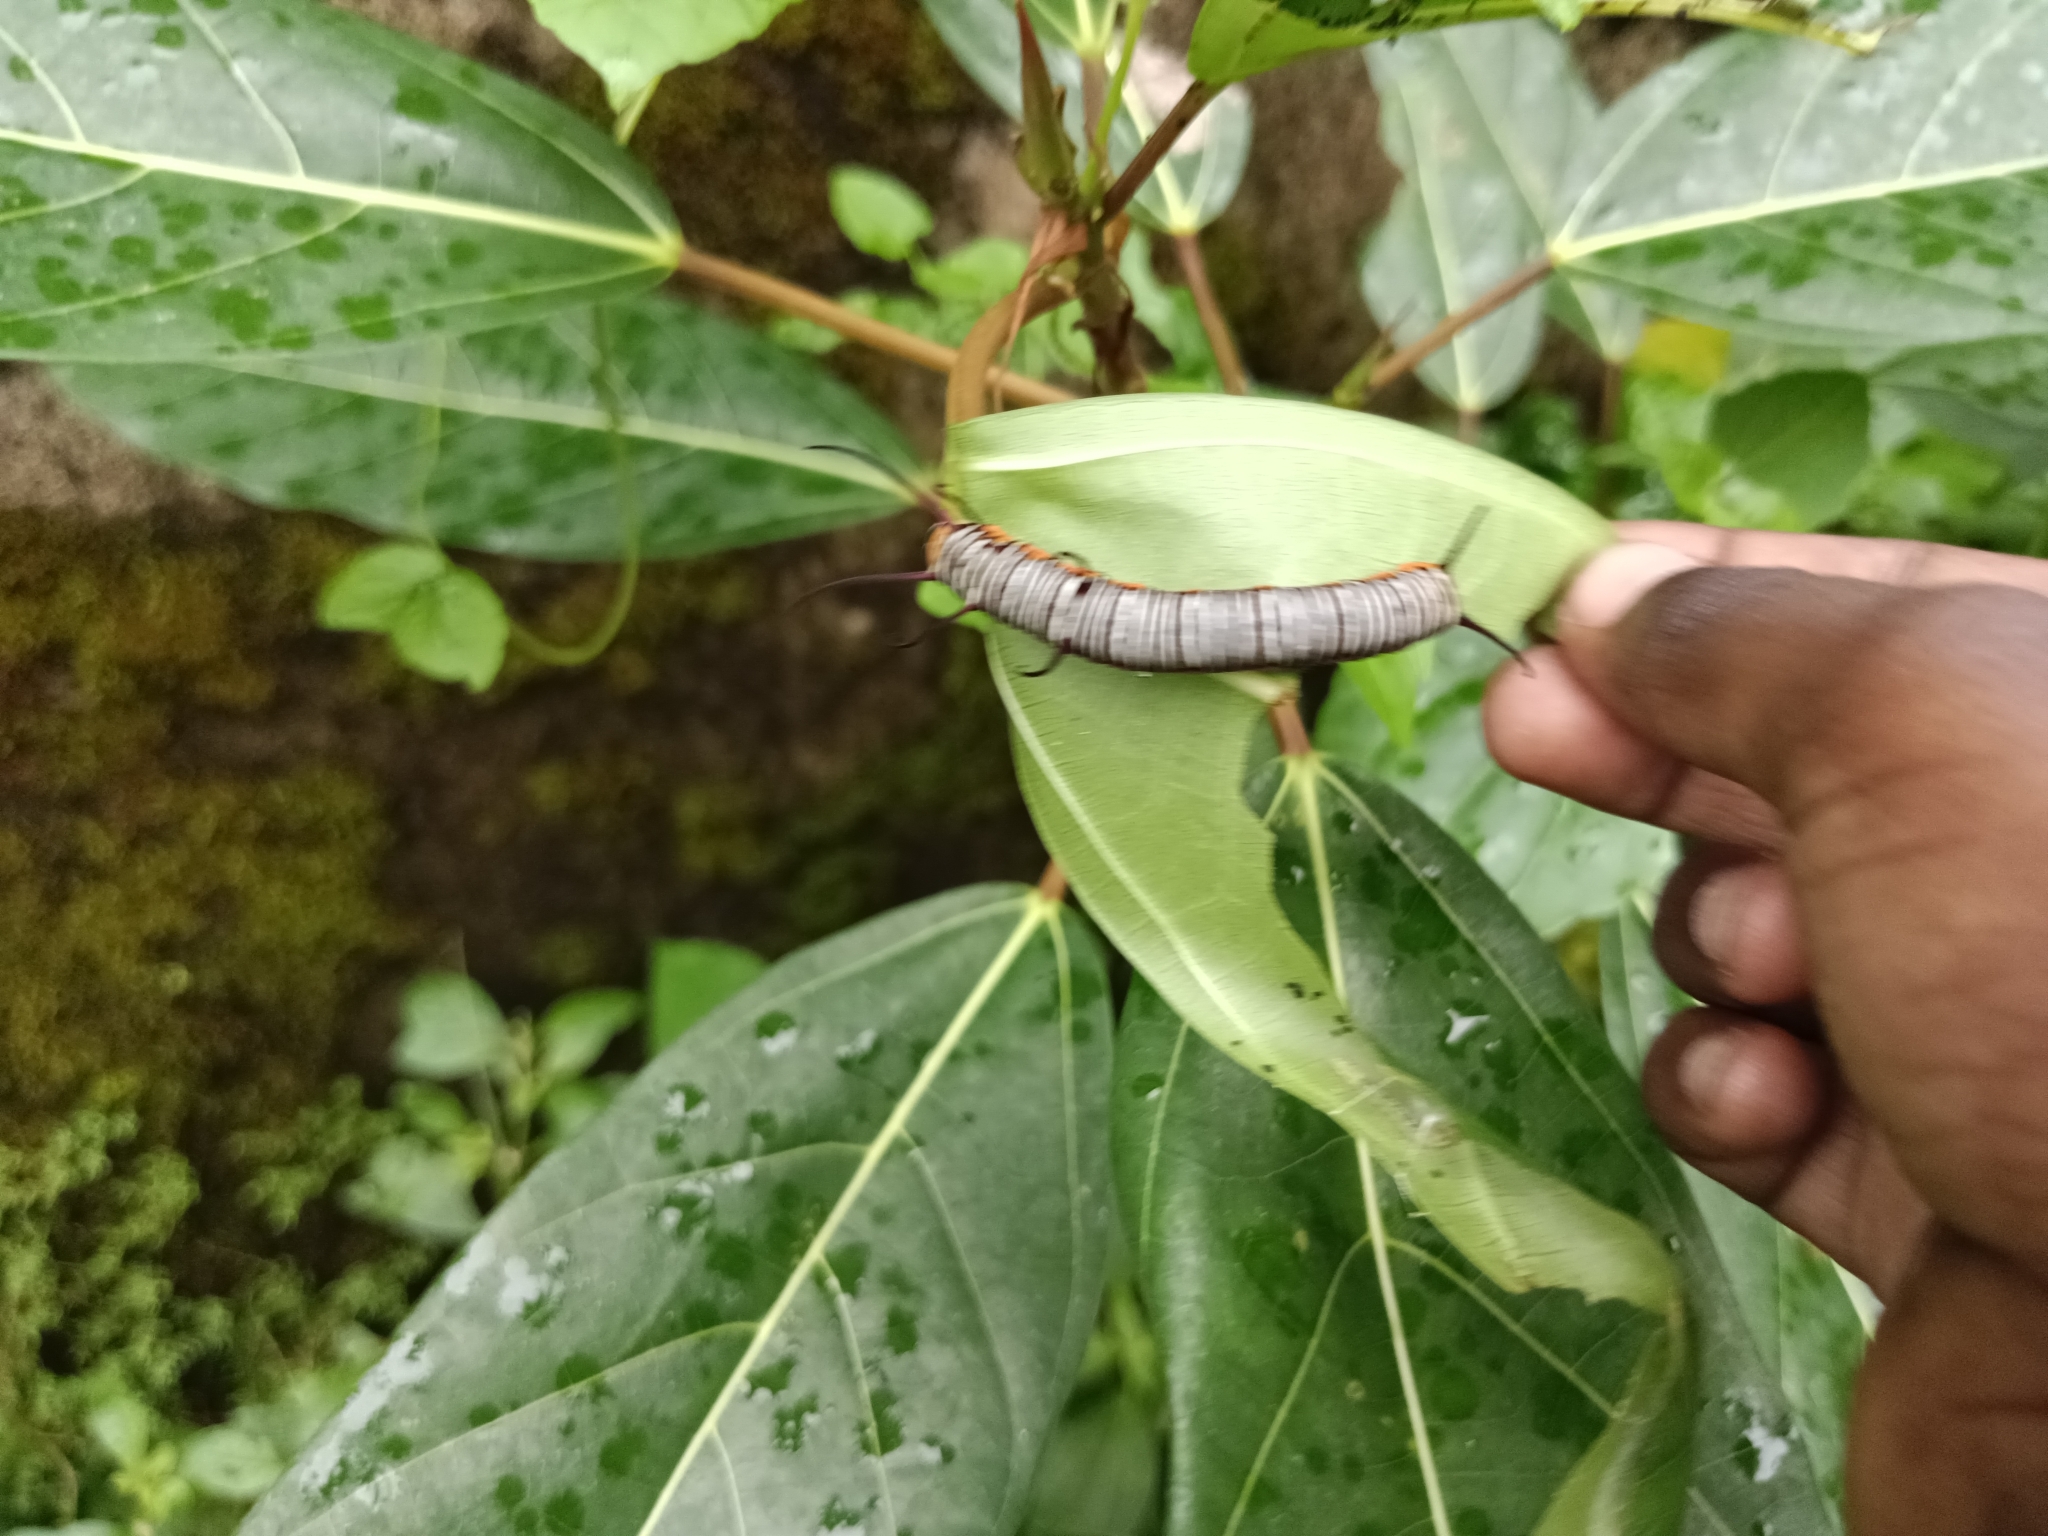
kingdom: Animalia
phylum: Arthropoda
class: Insecta
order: Lepidoptera
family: Nymphalidae
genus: Euploea
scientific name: Euploea core
